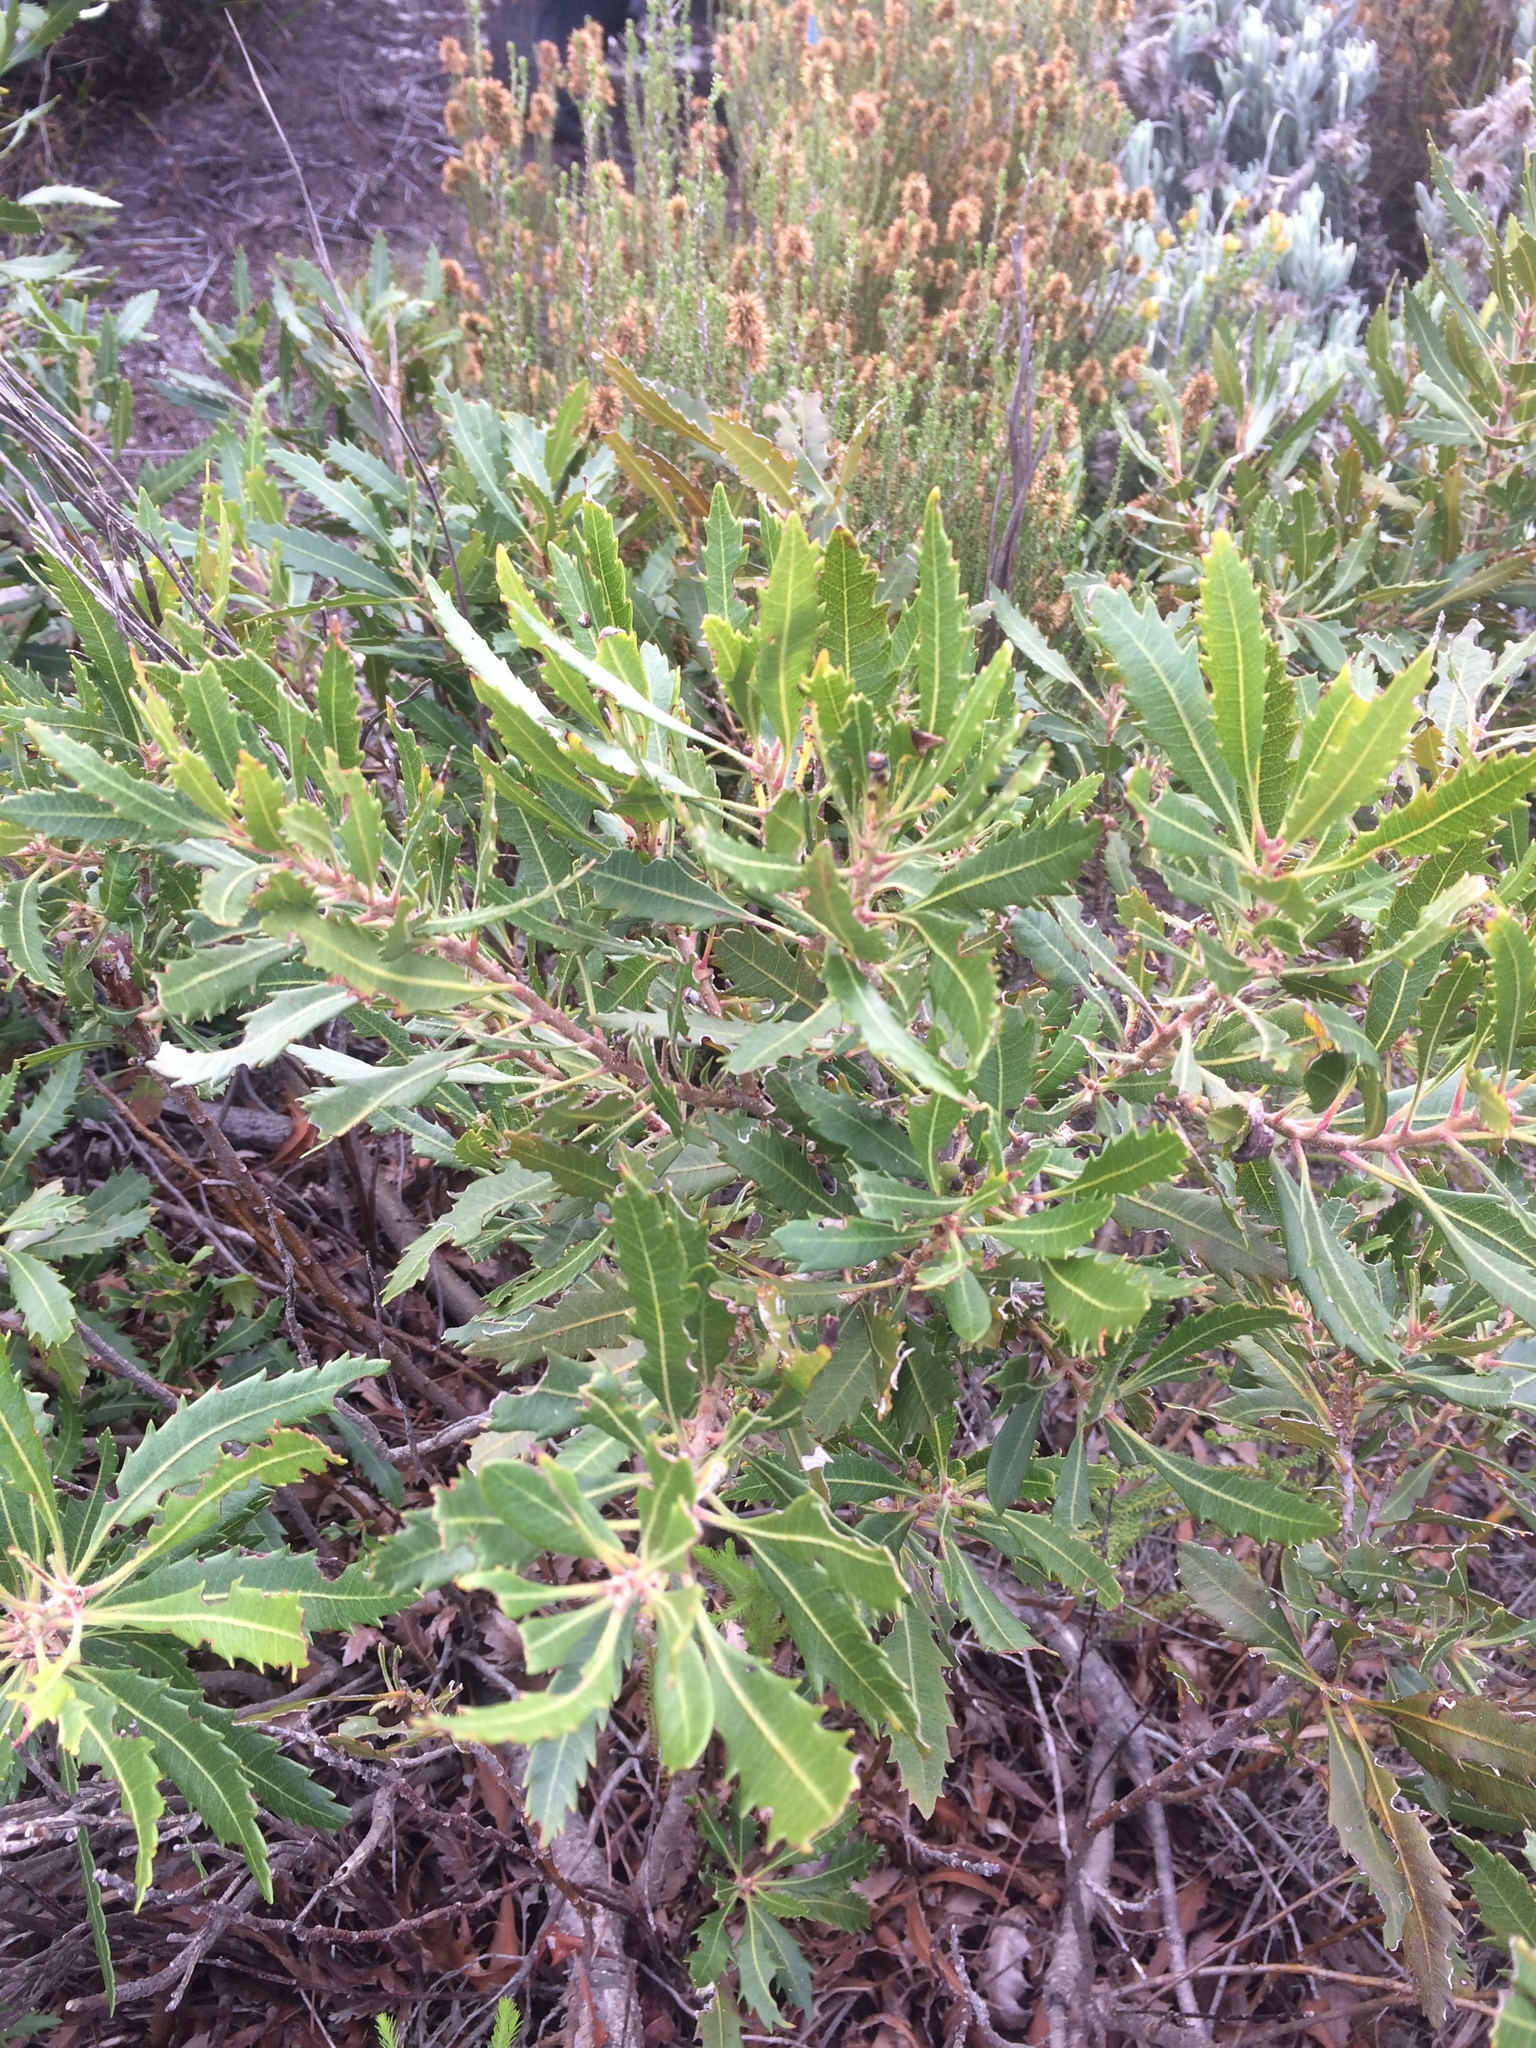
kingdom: Plantae
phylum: Tracheophyta
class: Magnoliopsida
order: Fagales
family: Myricaceae
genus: Morella
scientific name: Morella serrata
